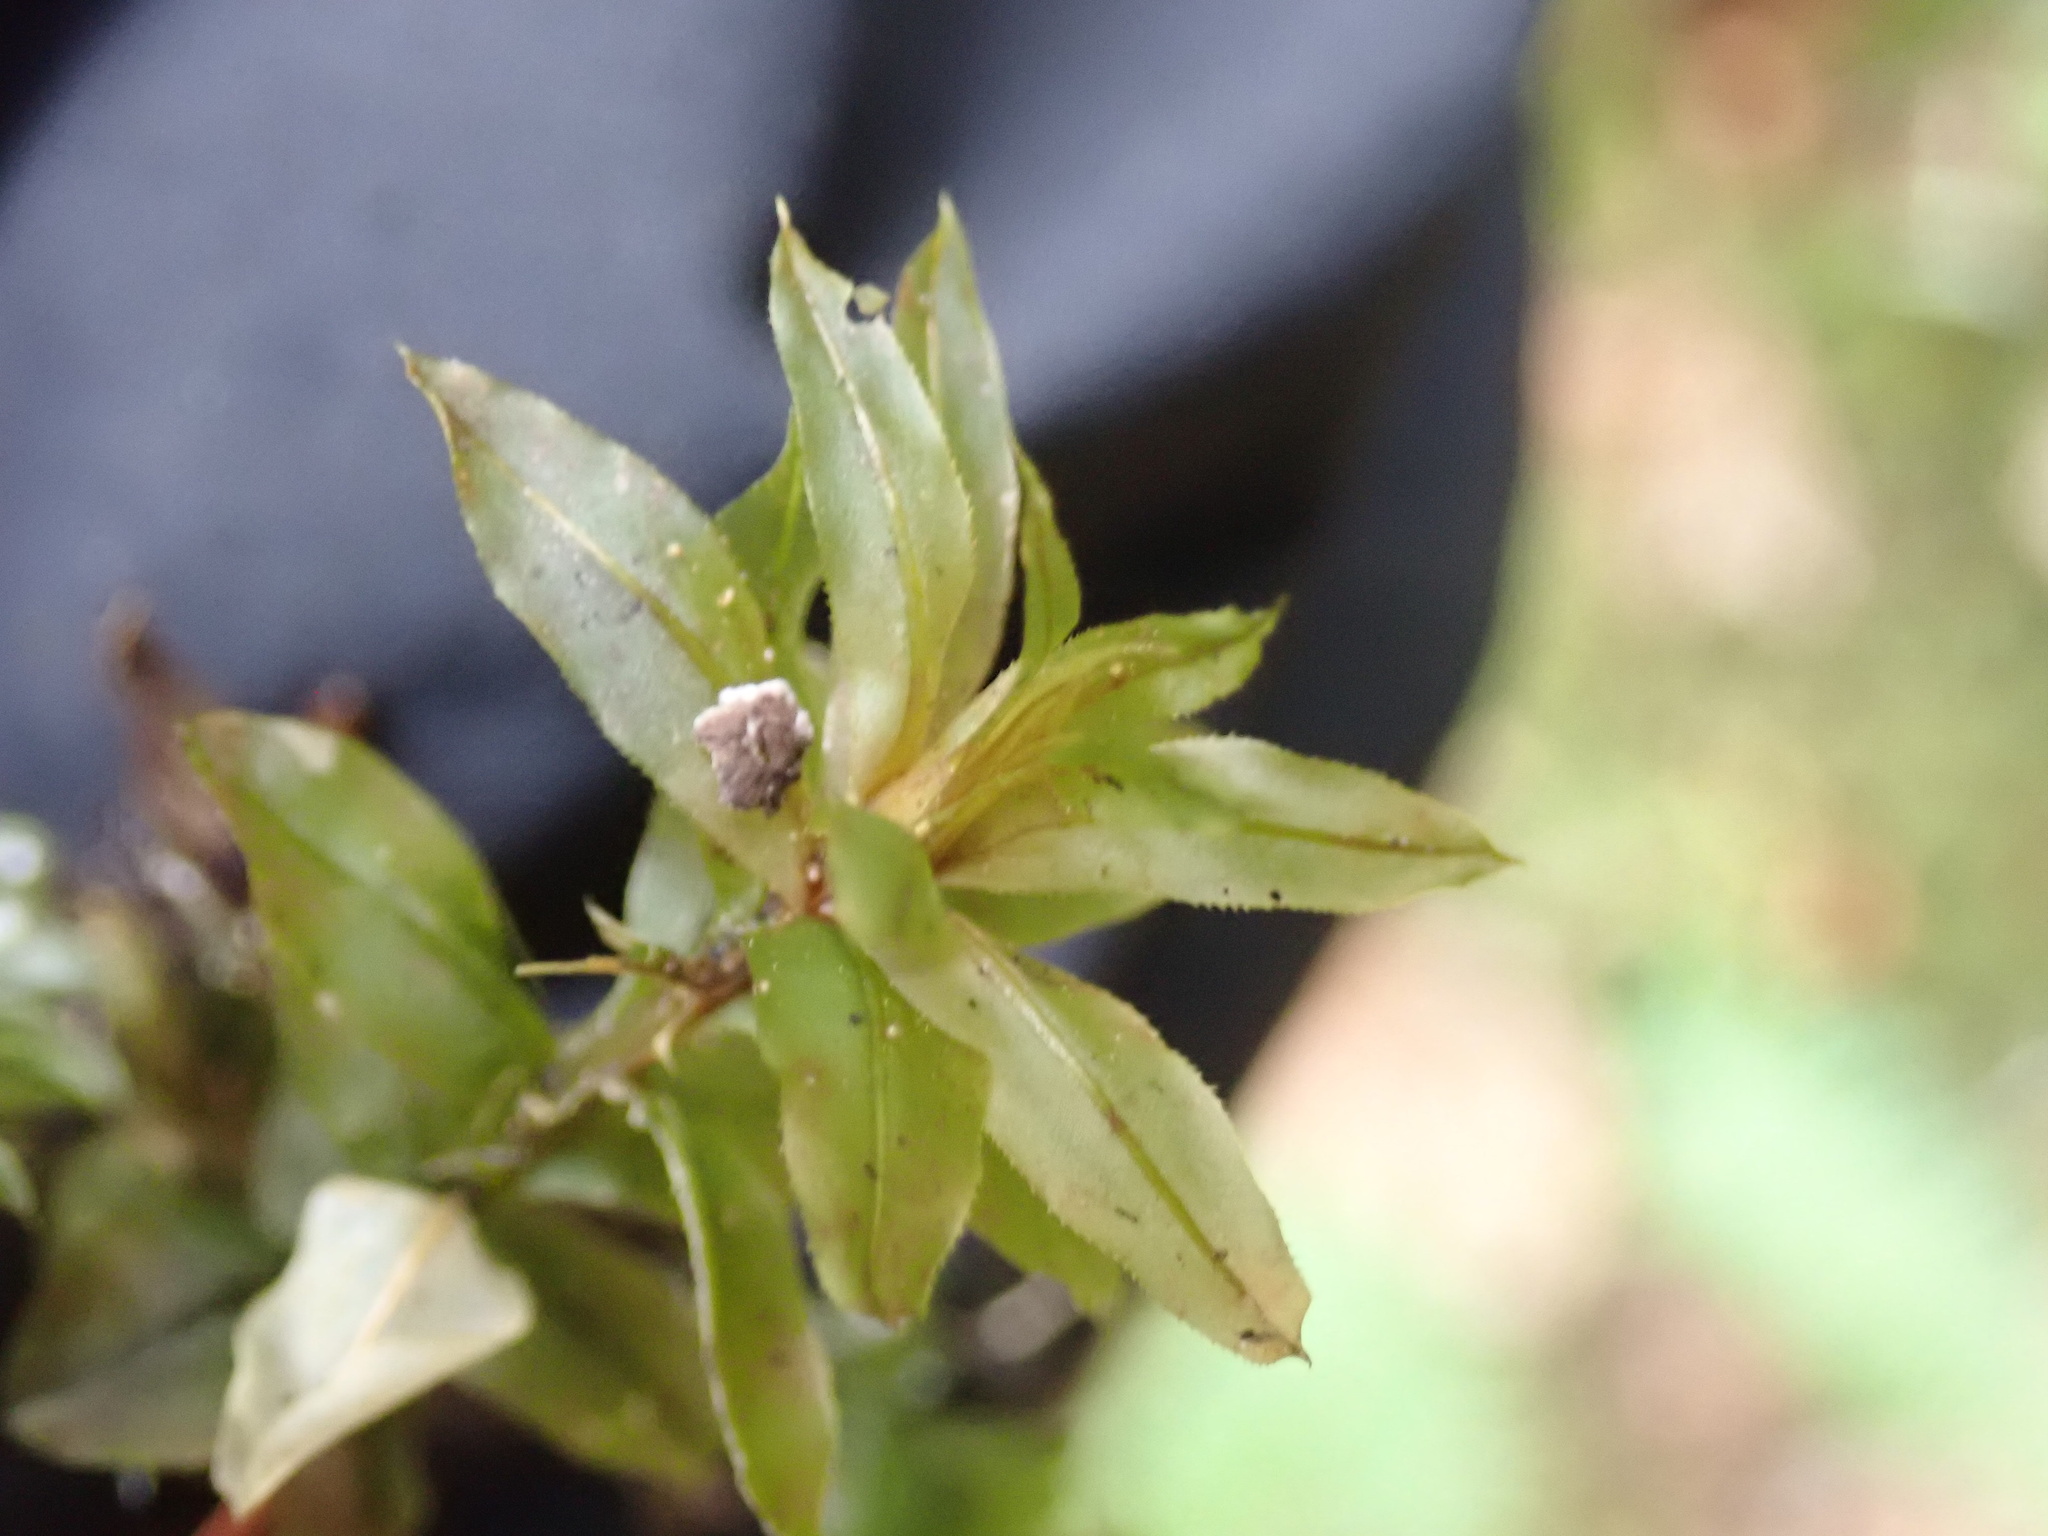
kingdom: Plantae
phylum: Bryophyta
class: Bryopsida
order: Bryales
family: Mniaceae
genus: Plagiomnium
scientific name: Plagiomnium insigne
